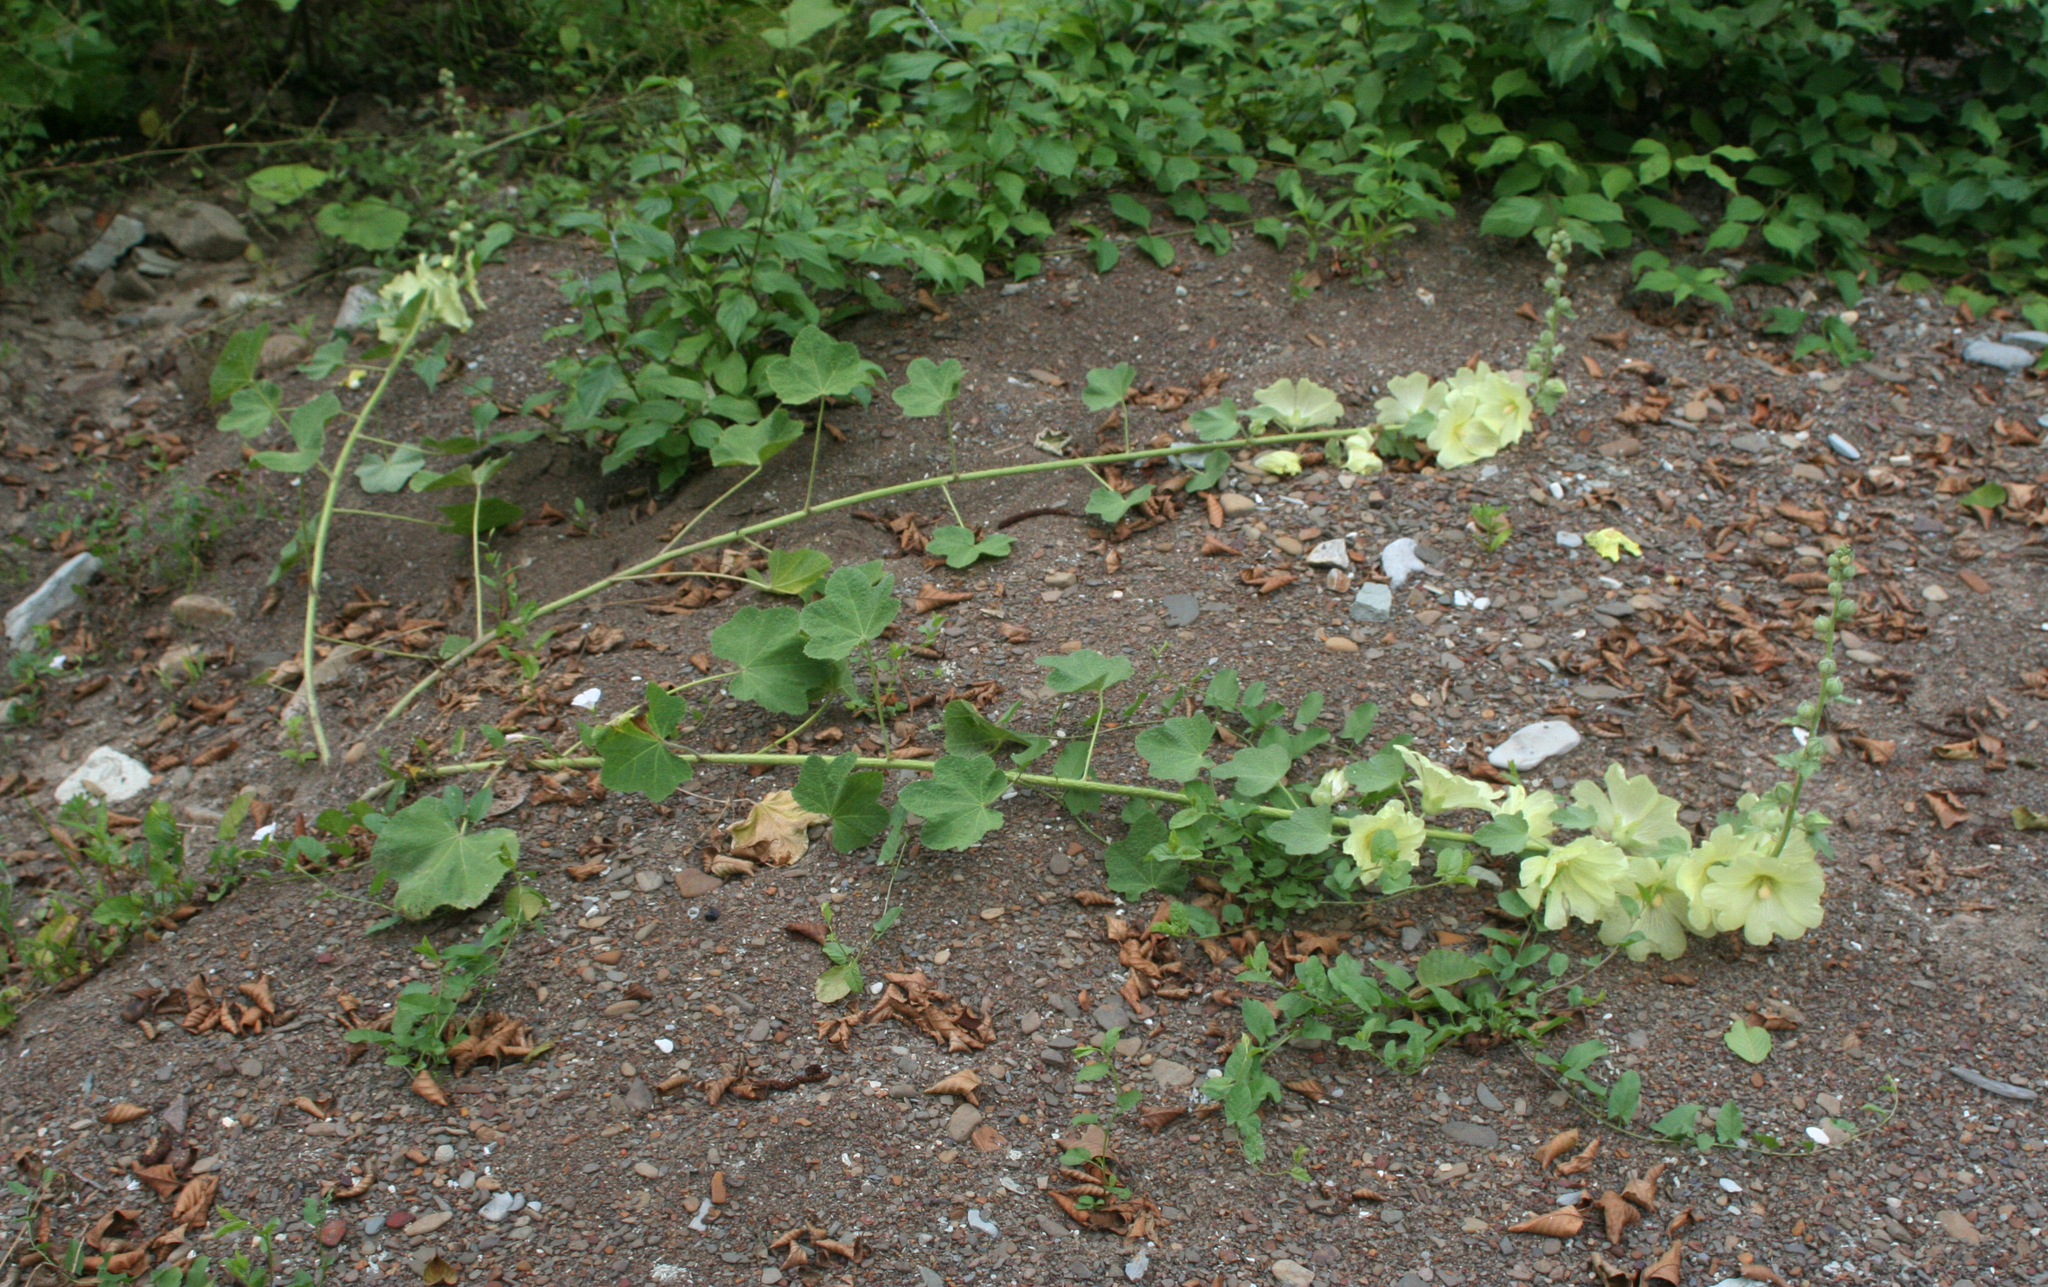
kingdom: Plantae
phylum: Tracheophyta
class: Magnoliopsida
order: Malvales
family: Malvaceae
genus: Alcea
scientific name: Alcea rugosa
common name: Russian hollyhock
